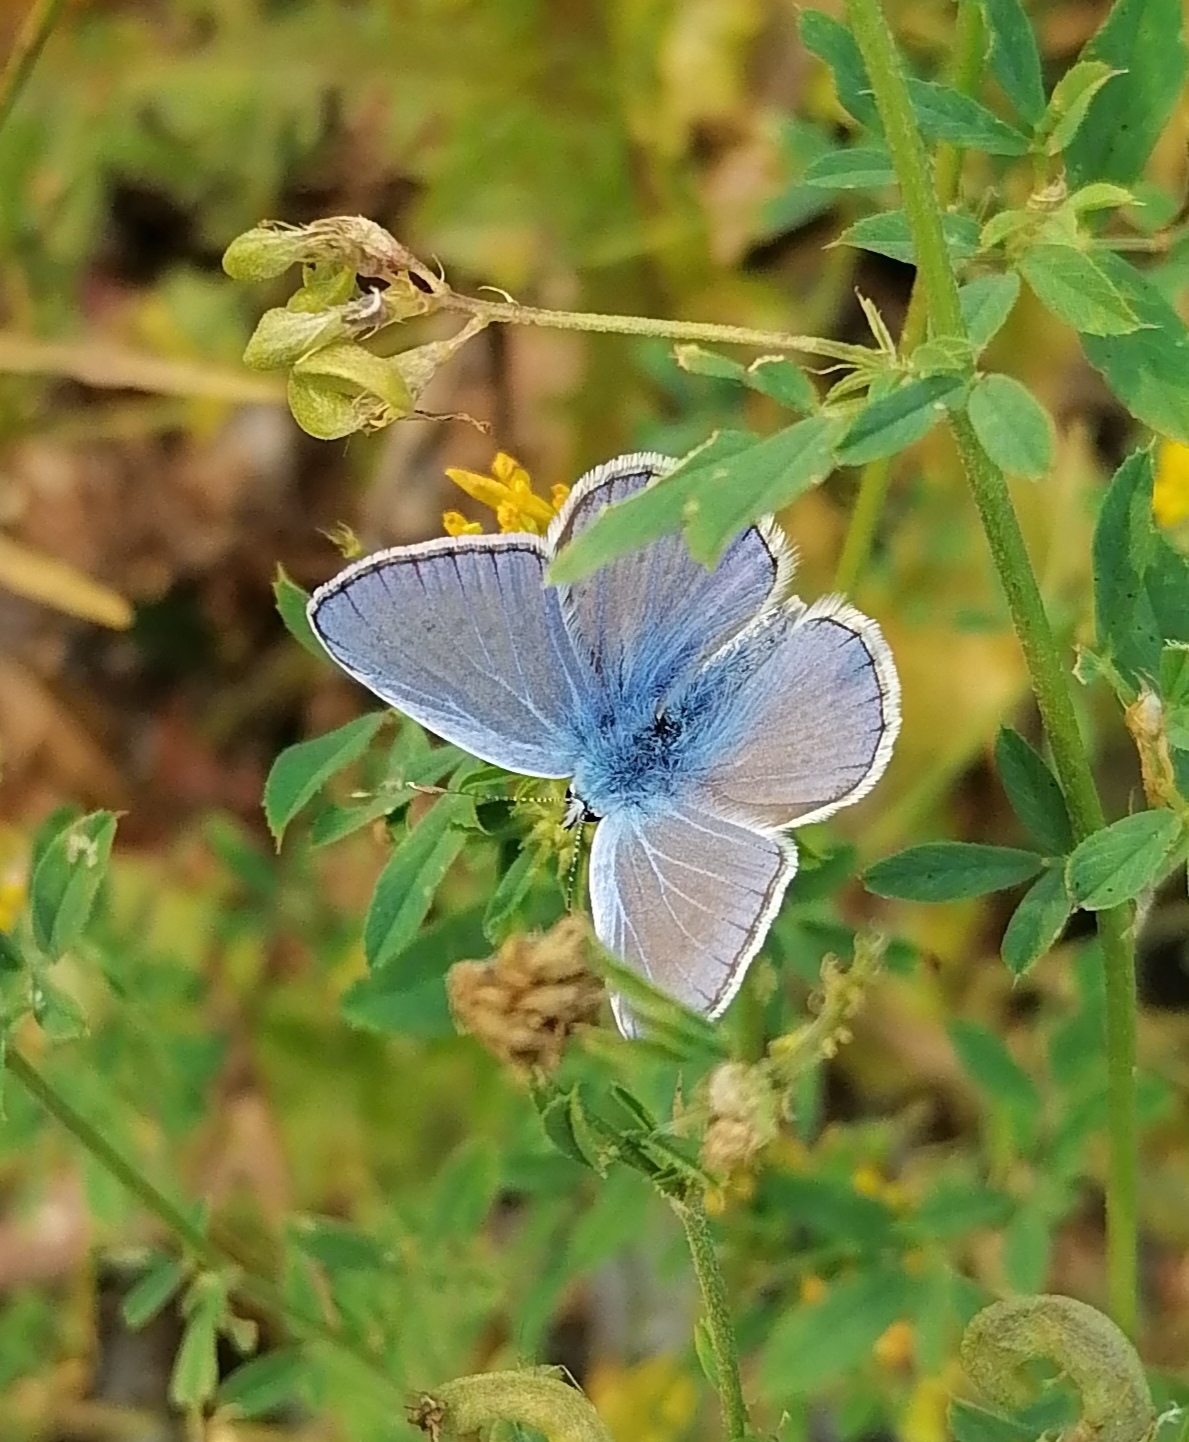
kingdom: Animalia
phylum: Arthropoda
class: Insecta
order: Lepidoptera
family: Lycaenidae
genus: Polyommatus
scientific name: Polyommatus icarus
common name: Common blue
